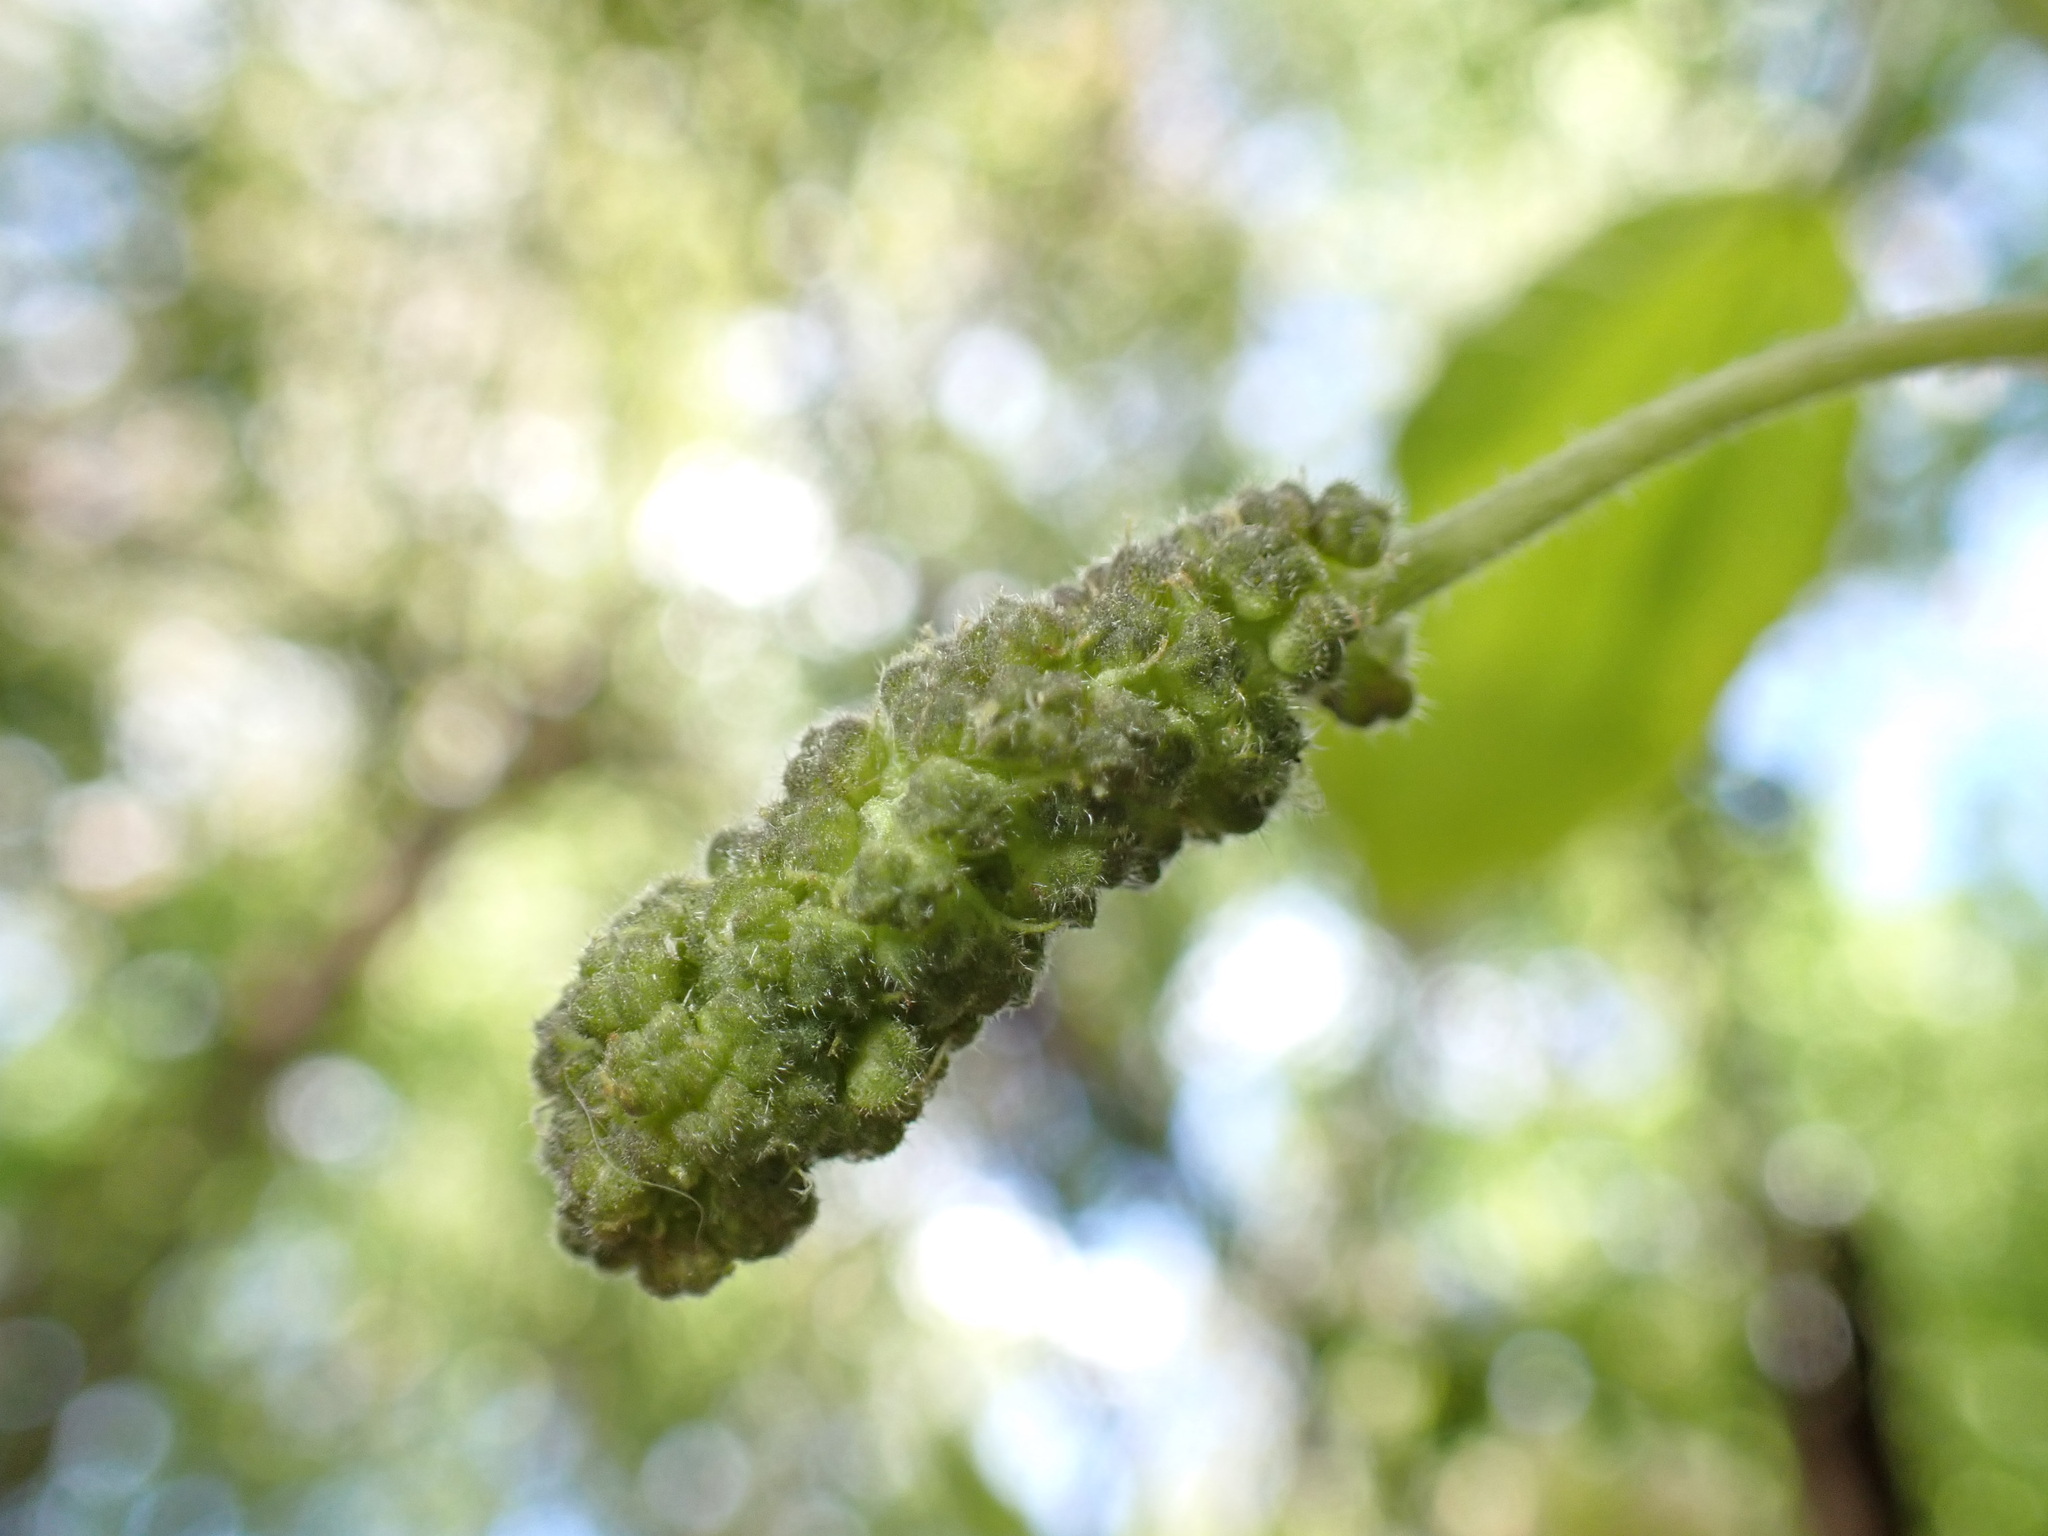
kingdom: Plantae
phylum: Tracheophyta
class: Magnoliopsida
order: Rosales
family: Moraceae
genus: Broussonetia
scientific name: Broussonetia papyrifera
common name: Paper mulberry
